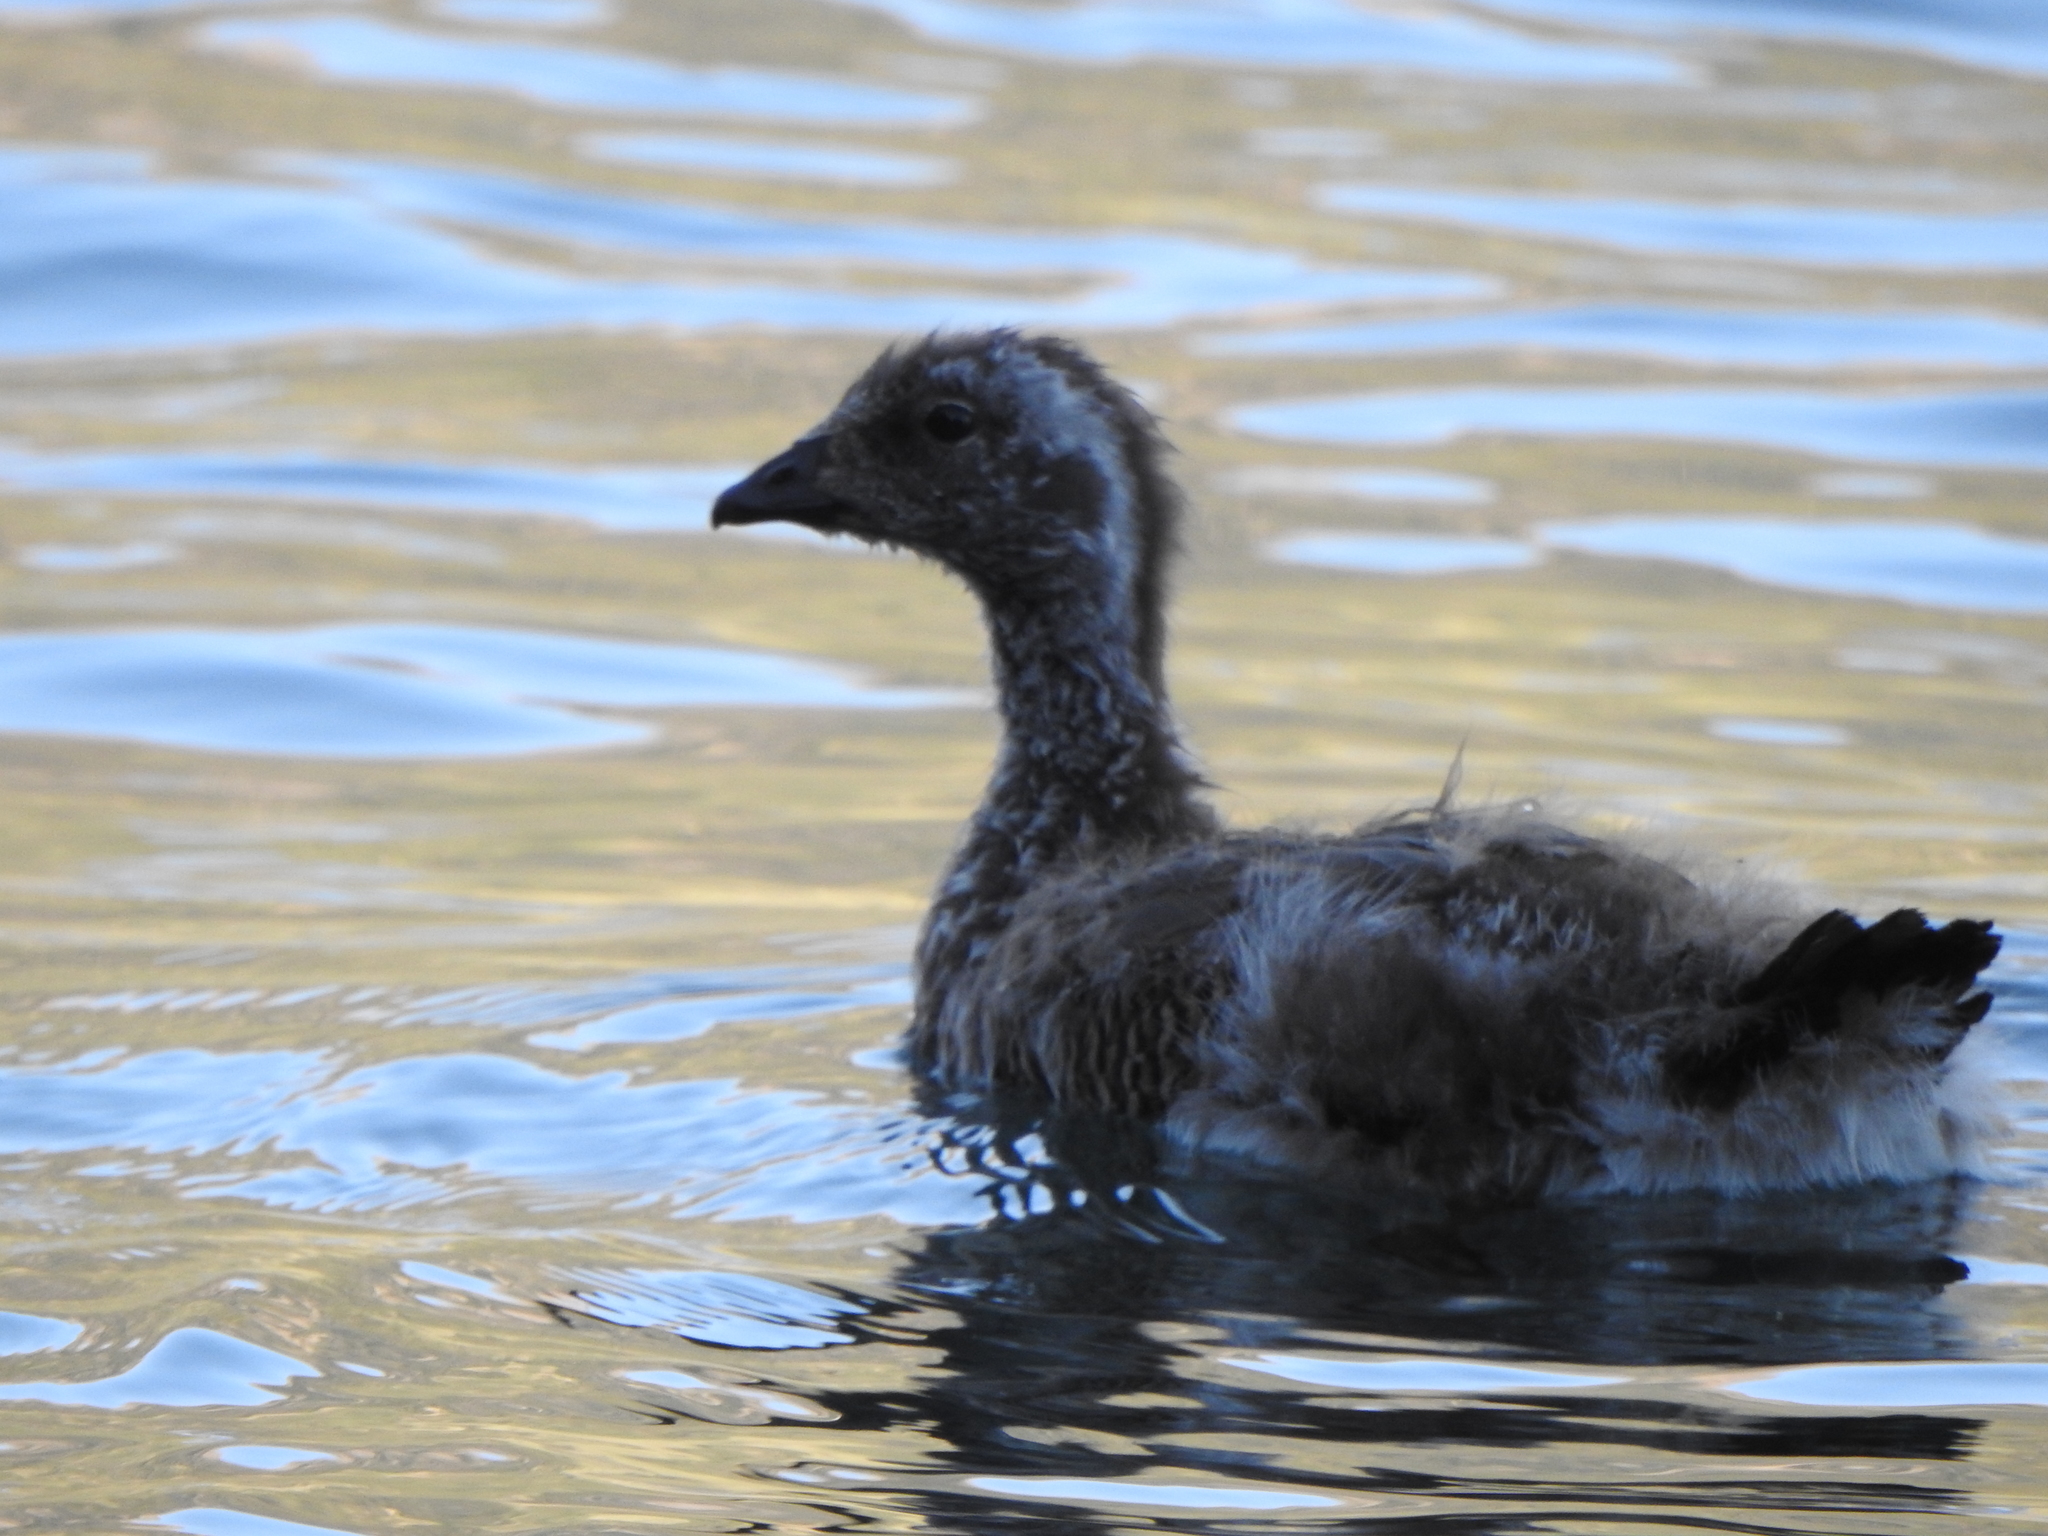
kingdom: Animalia
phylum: Chordata
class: Aves
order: Anseriformes
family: Anatidae
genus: Chloephaga
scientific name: Chloephaga poliocephala
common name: Ashy-headed goose
